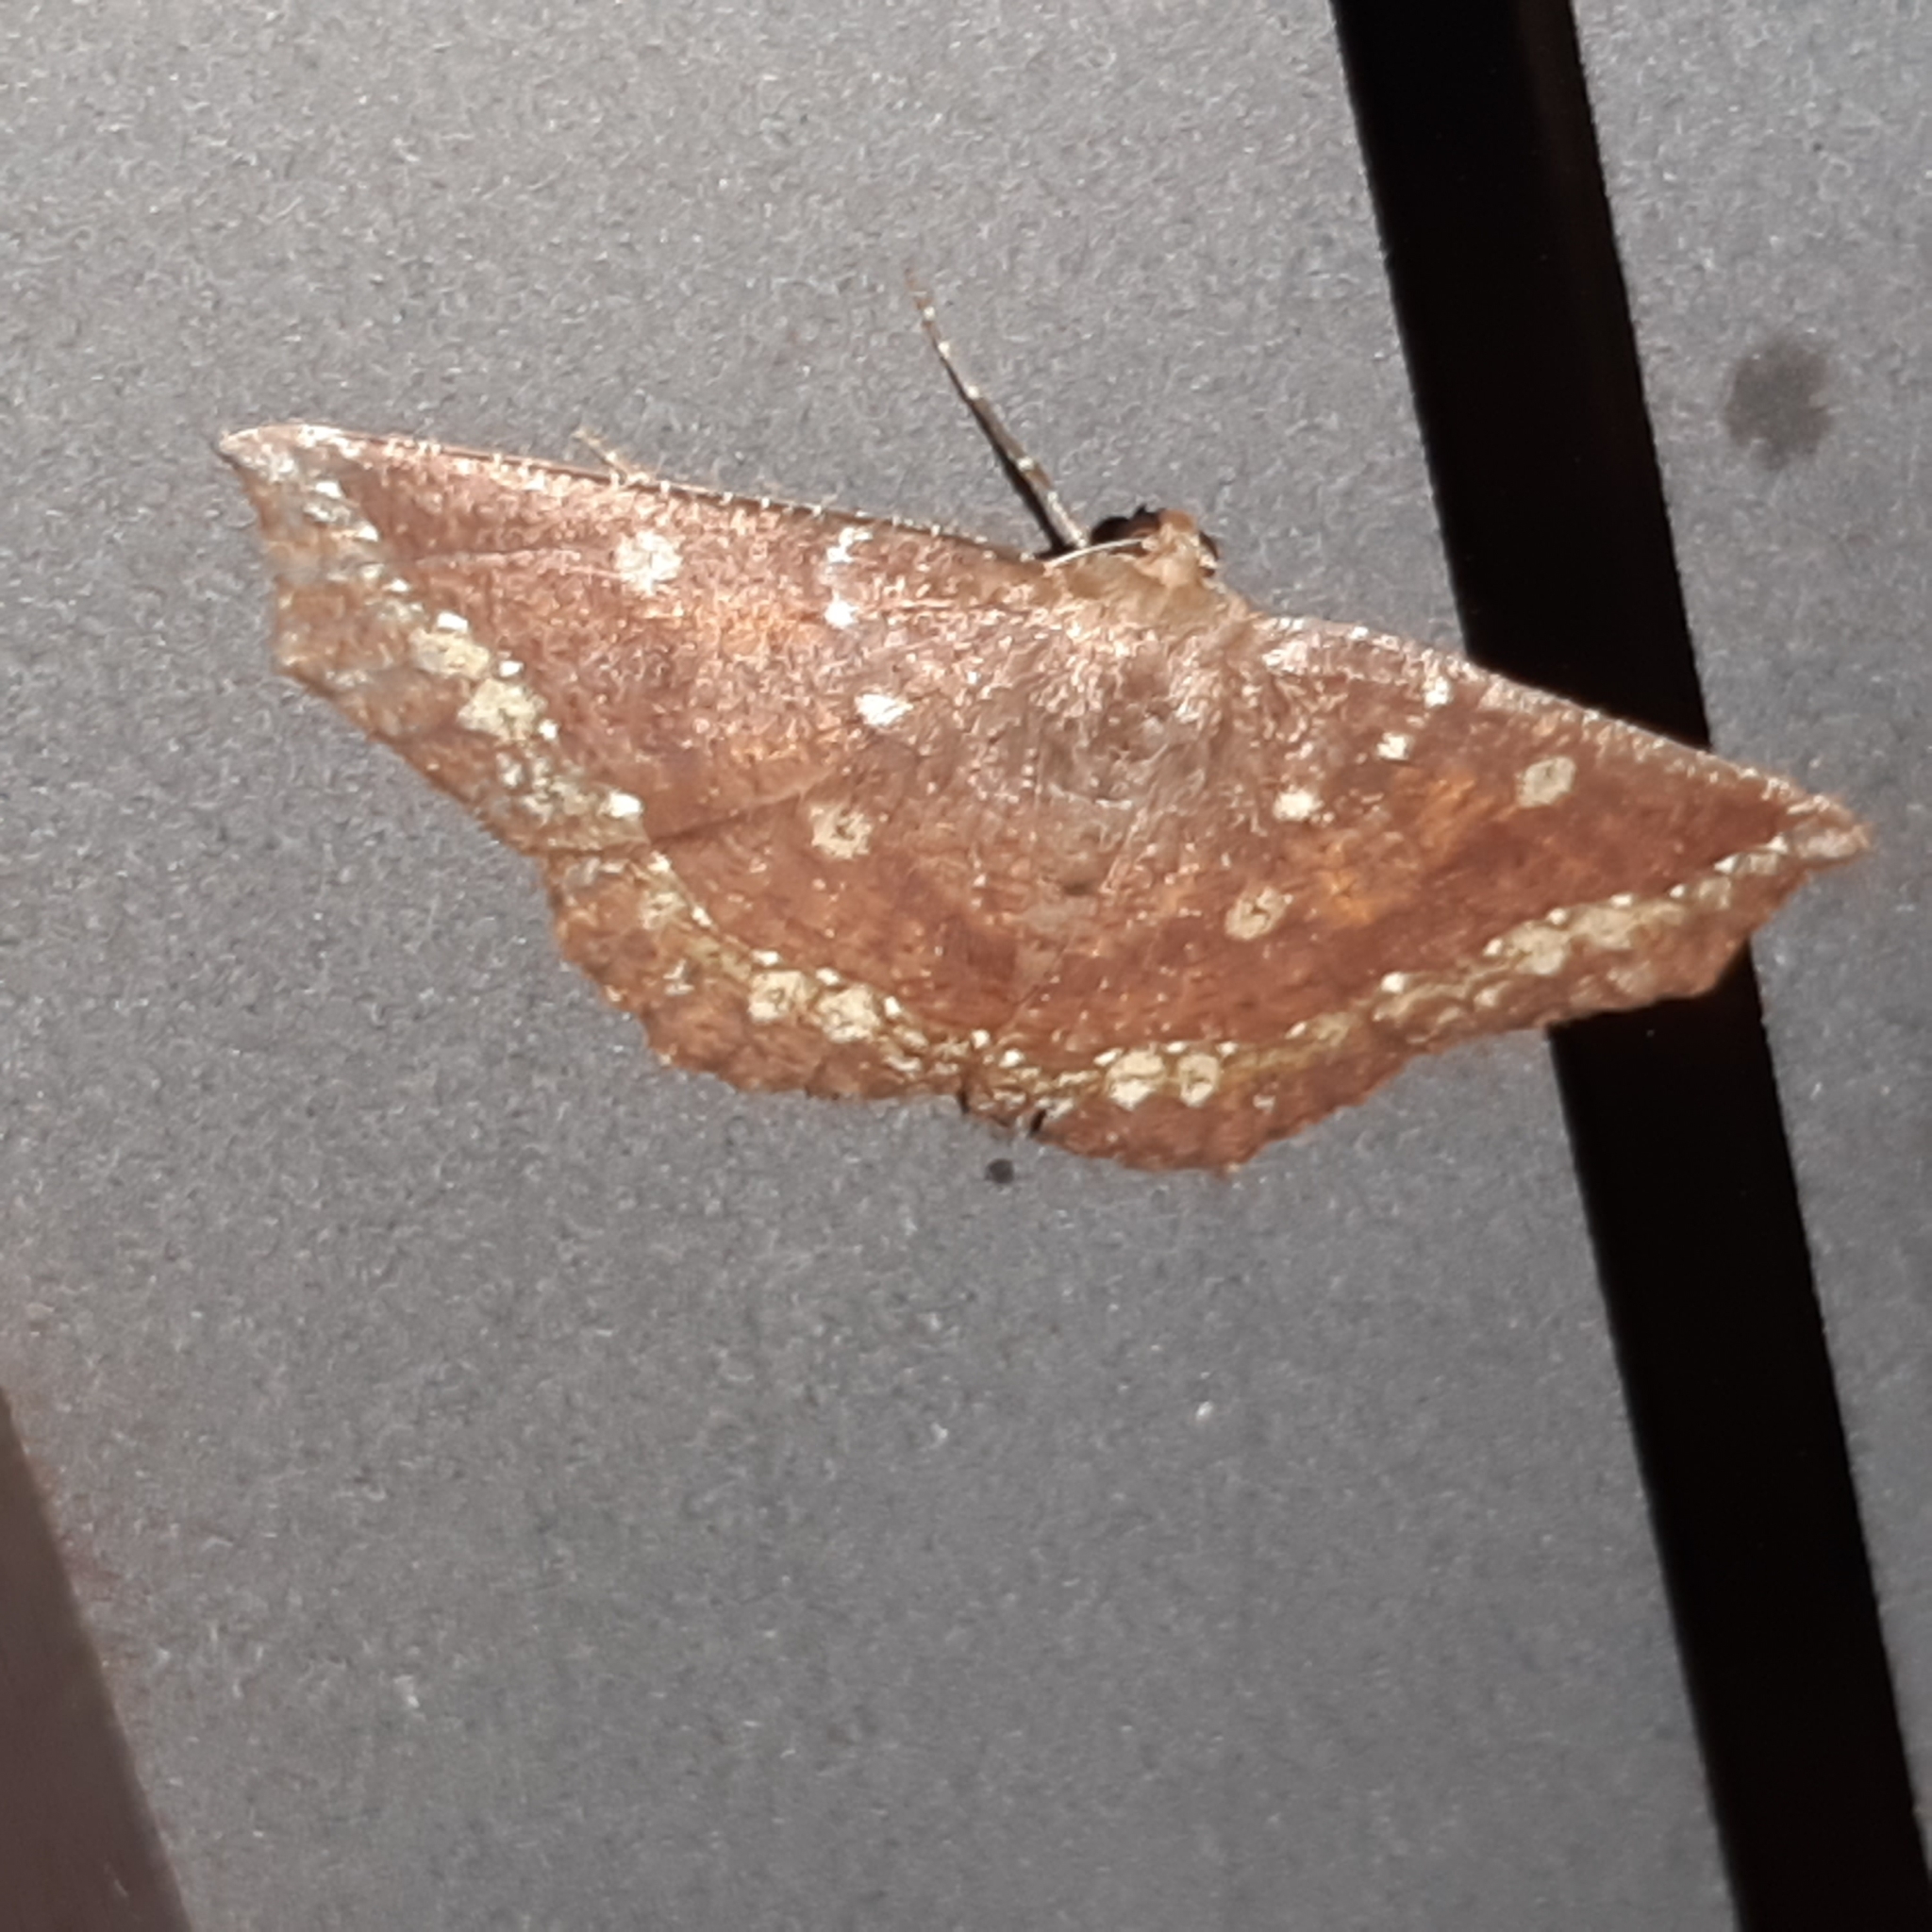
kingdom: Animalia
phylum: Arthropoda
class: Insecta
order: Lepidoptera
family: Geometridae
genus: Synnomos
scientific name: Synnomos firmamentaria
